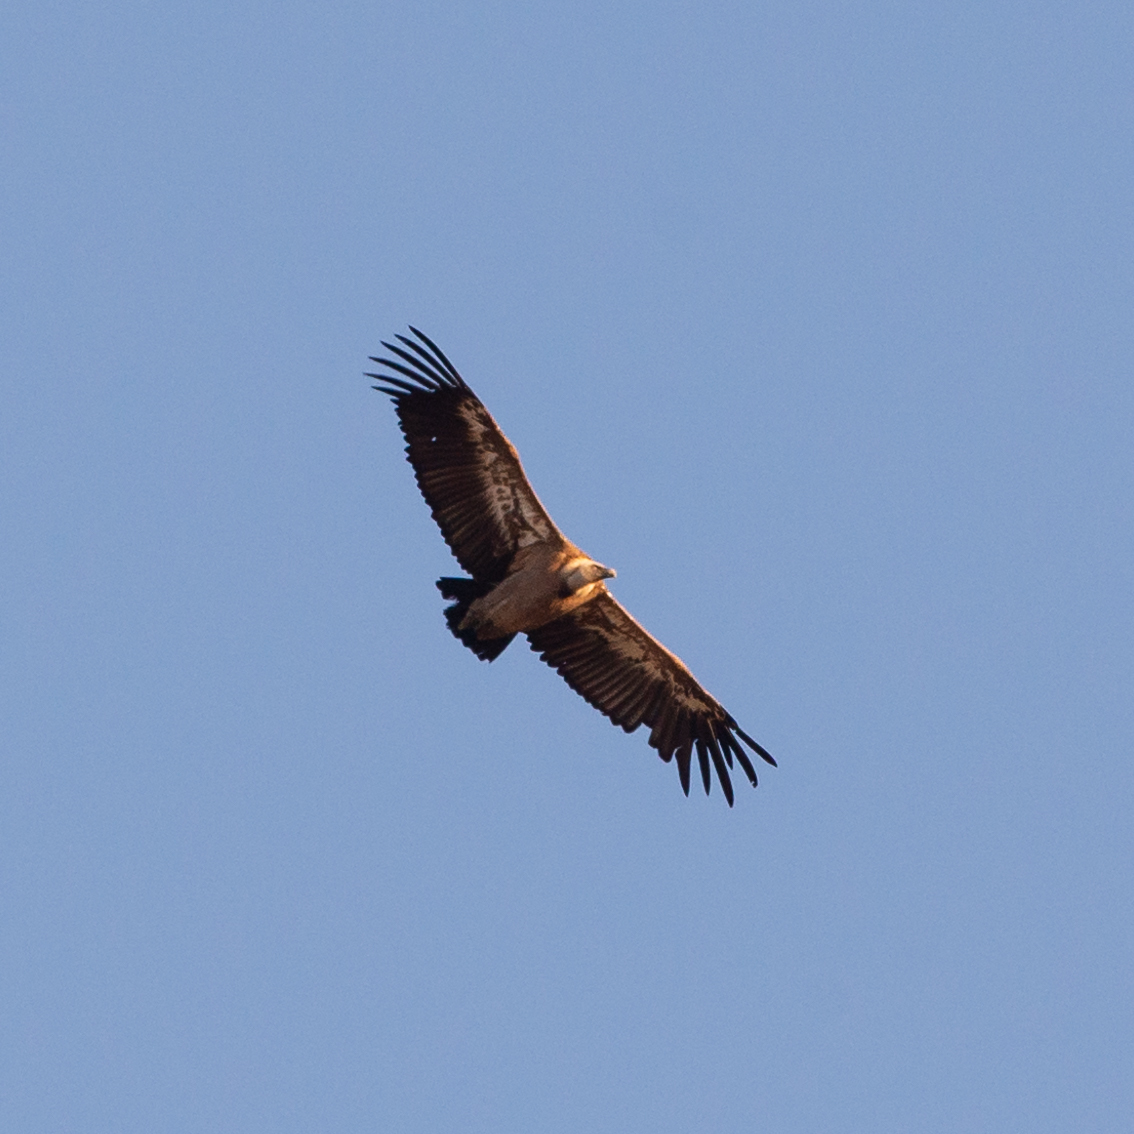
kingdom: Animalia
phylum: Chordata
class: Aves
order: Accipitriformes
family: Accipitridae
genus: Gyps
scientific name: Gyps fulvus
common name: Griffon vulture
